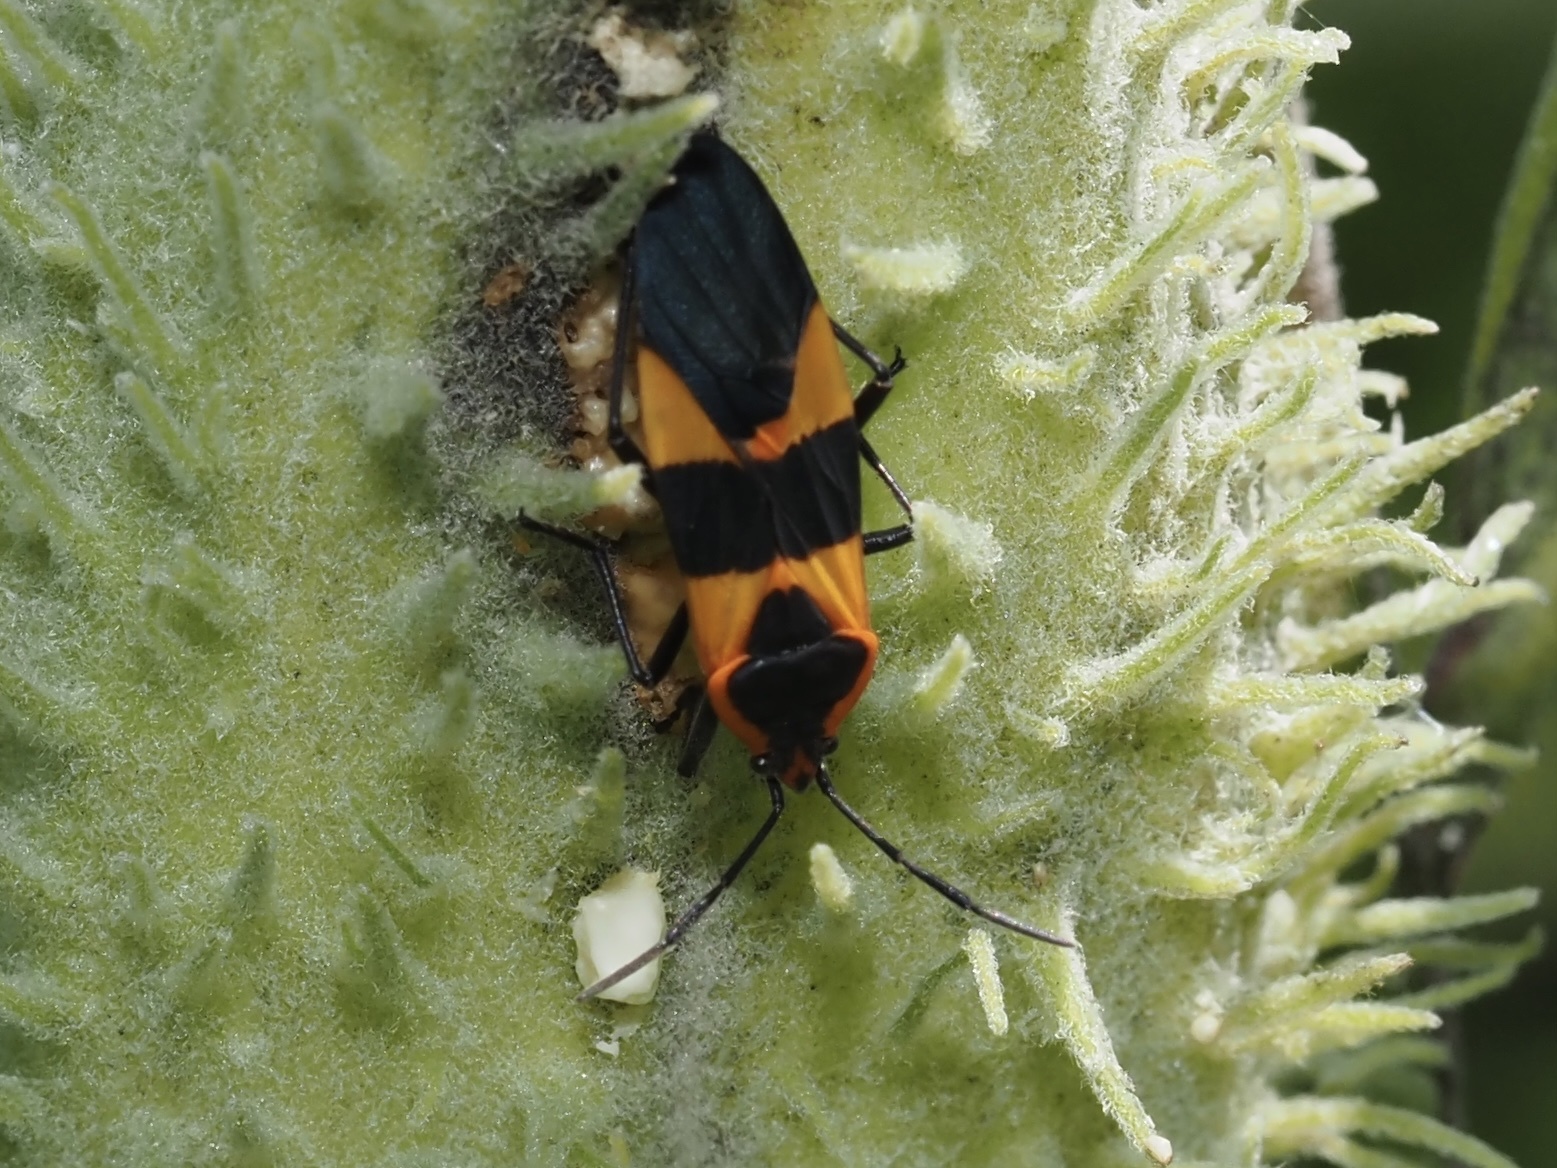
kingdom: Animalia
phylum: Arthropoda
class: Insecta
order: Hemiptera
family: Lygaeidae
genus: Oncopeltus
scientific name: Oncopeltus fasciatus
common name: Large milkweed bug
